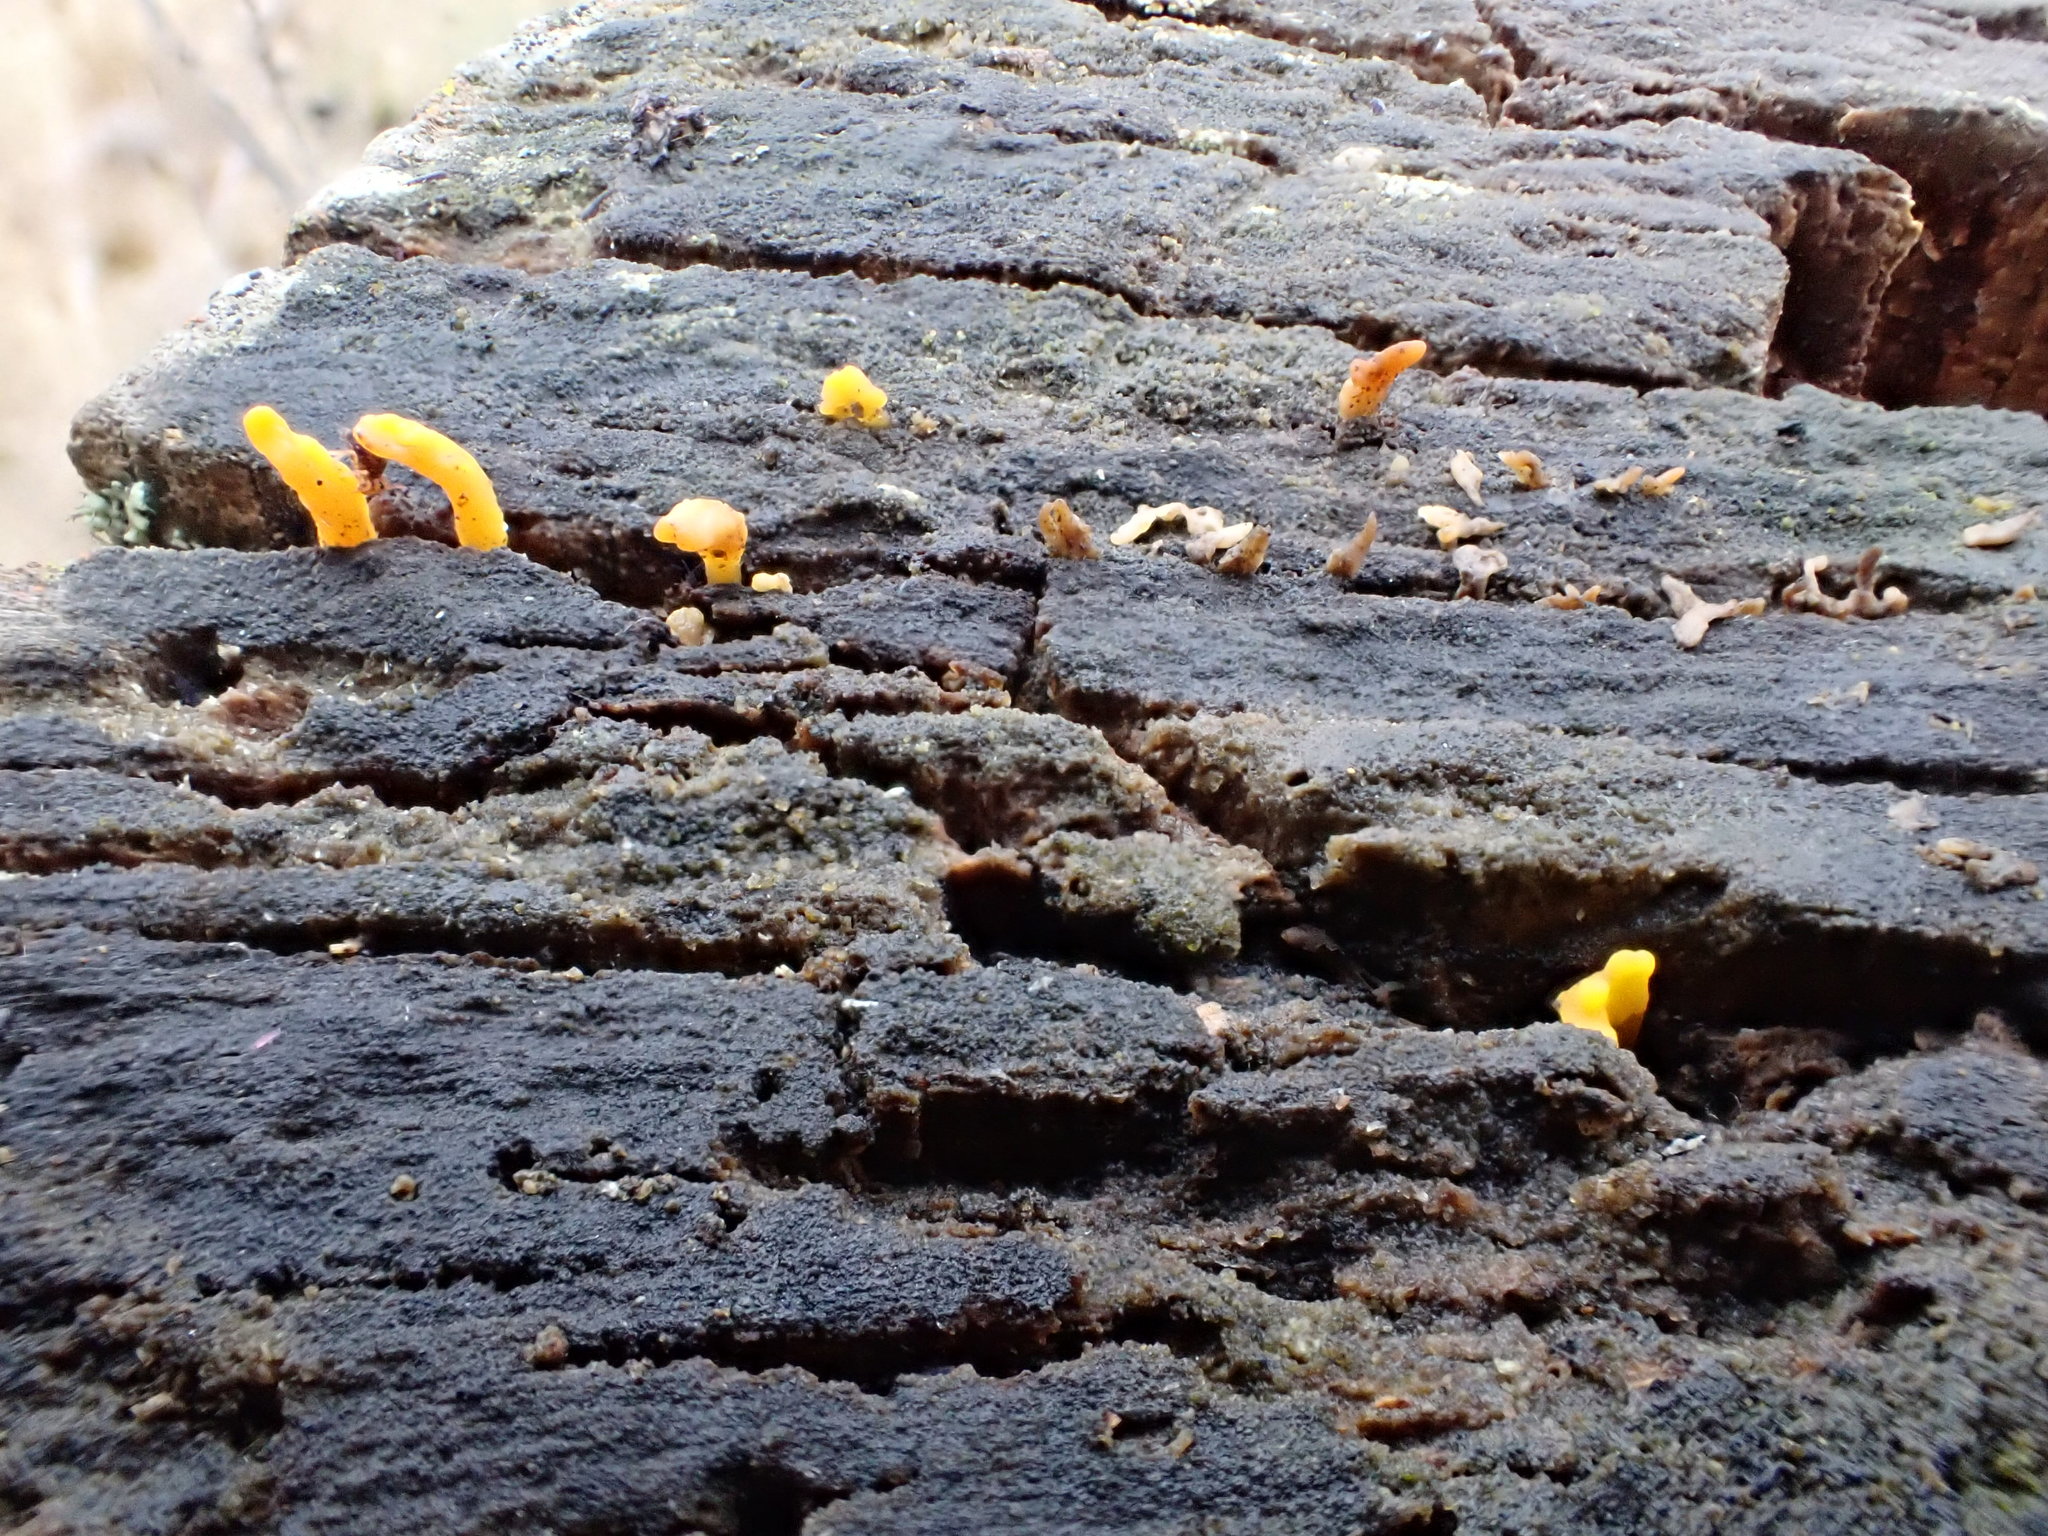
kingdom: Fungi
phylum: Basidiomycota
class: Dacrymycetes
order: Dacrymycetales
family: Dacrymycetaceae
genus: Calocera
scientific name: Calocera cornea
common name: Small stagshorn
